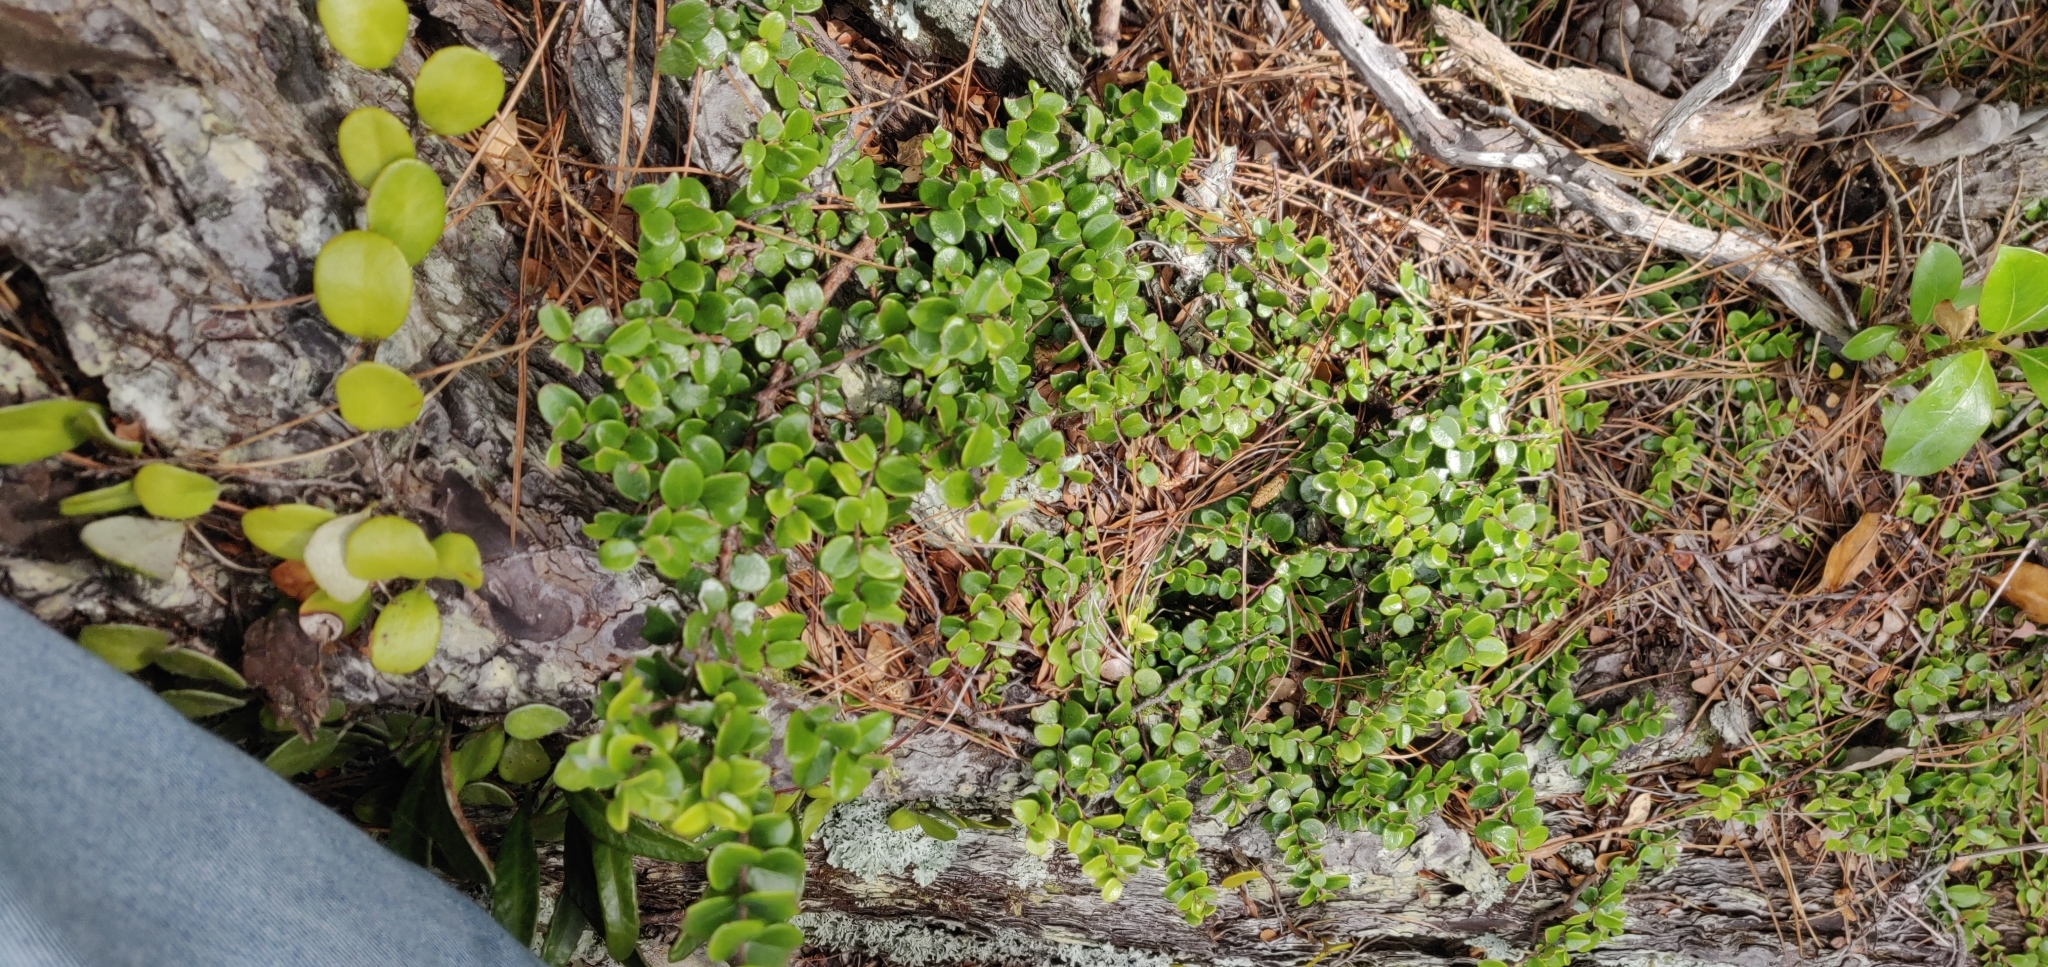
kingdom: Plantae
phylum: Tracheophyta
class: Magnoliopsida
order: Myrtales
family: Myrtaceae
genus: Metrosideros
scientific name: Metrosideros perforata
